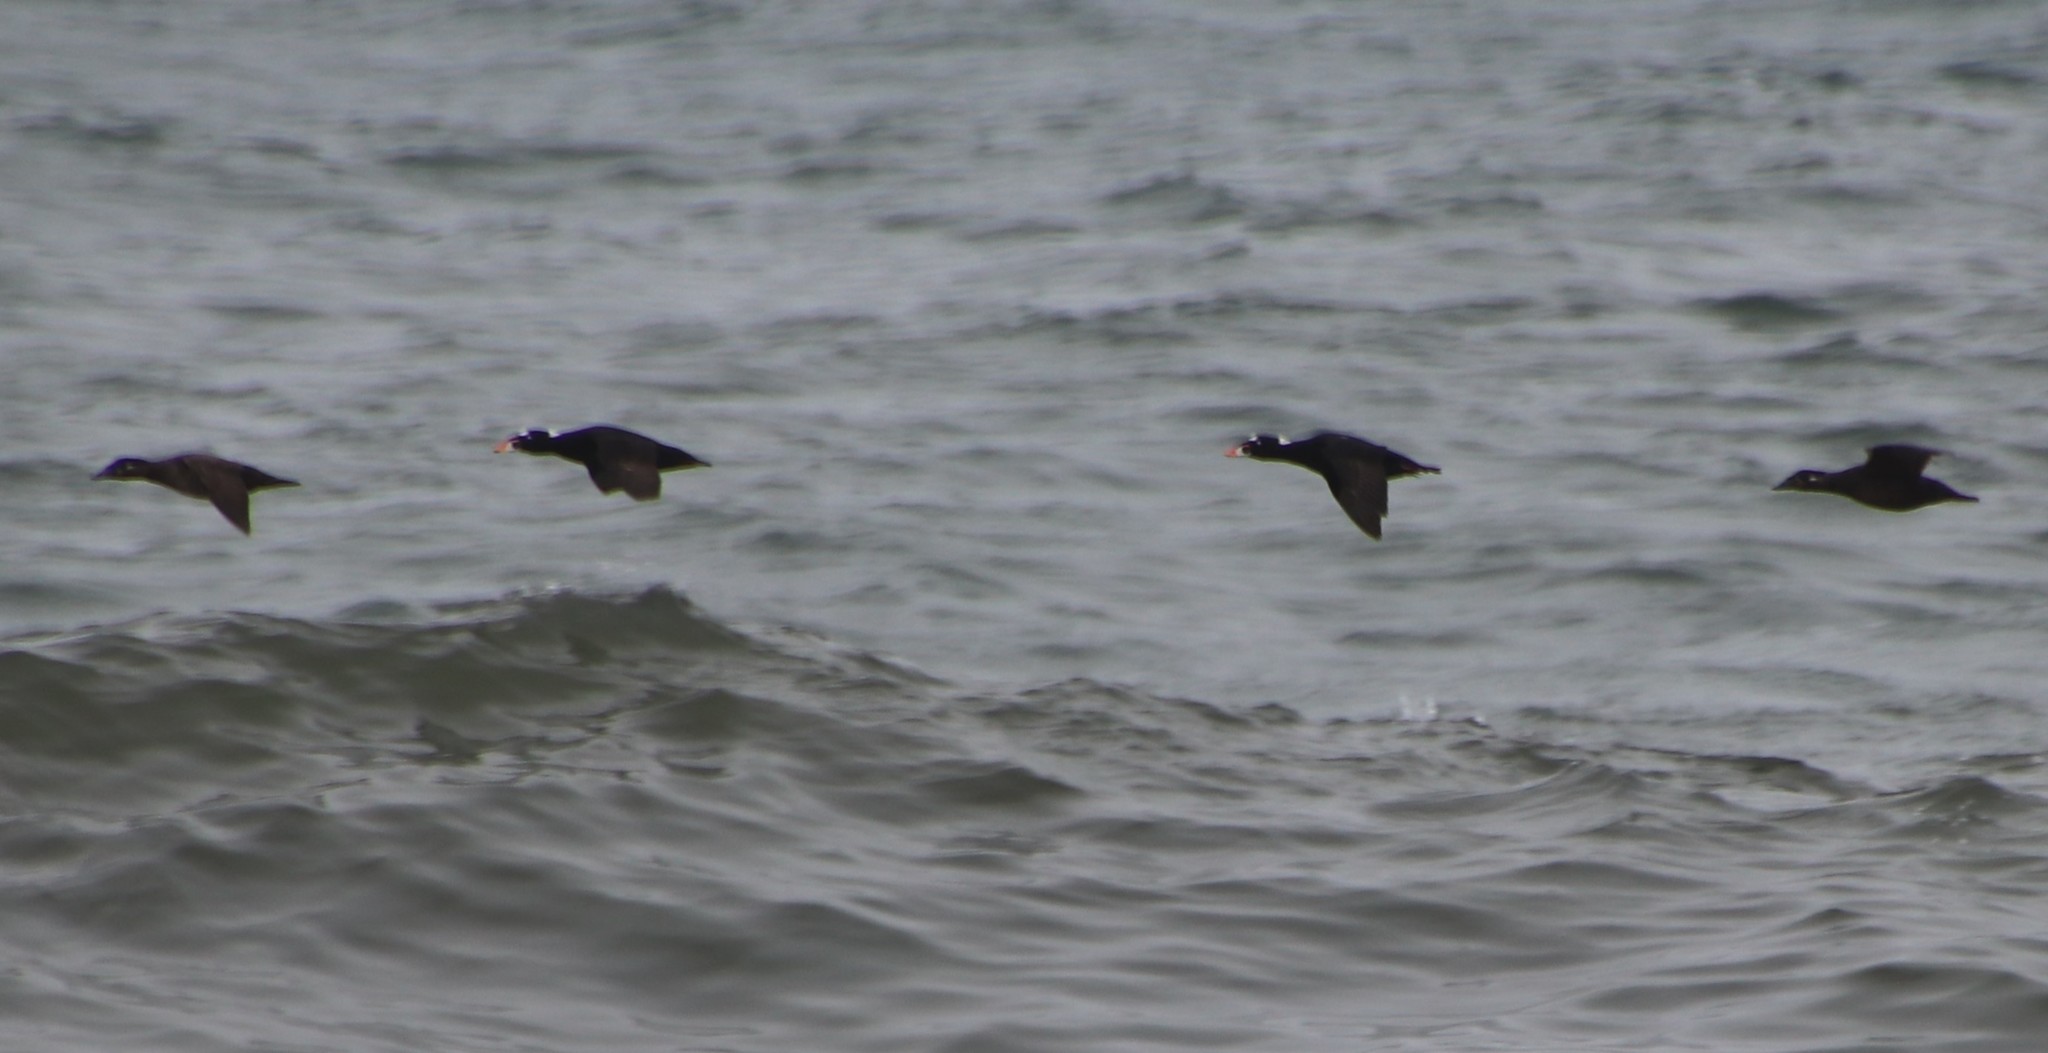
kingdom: Animalia
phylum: Chordata
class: Aves
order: Anseriformes
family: Anatidae
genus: Melanitta
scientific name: Melanitta perspicillata
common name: Surf scoter
